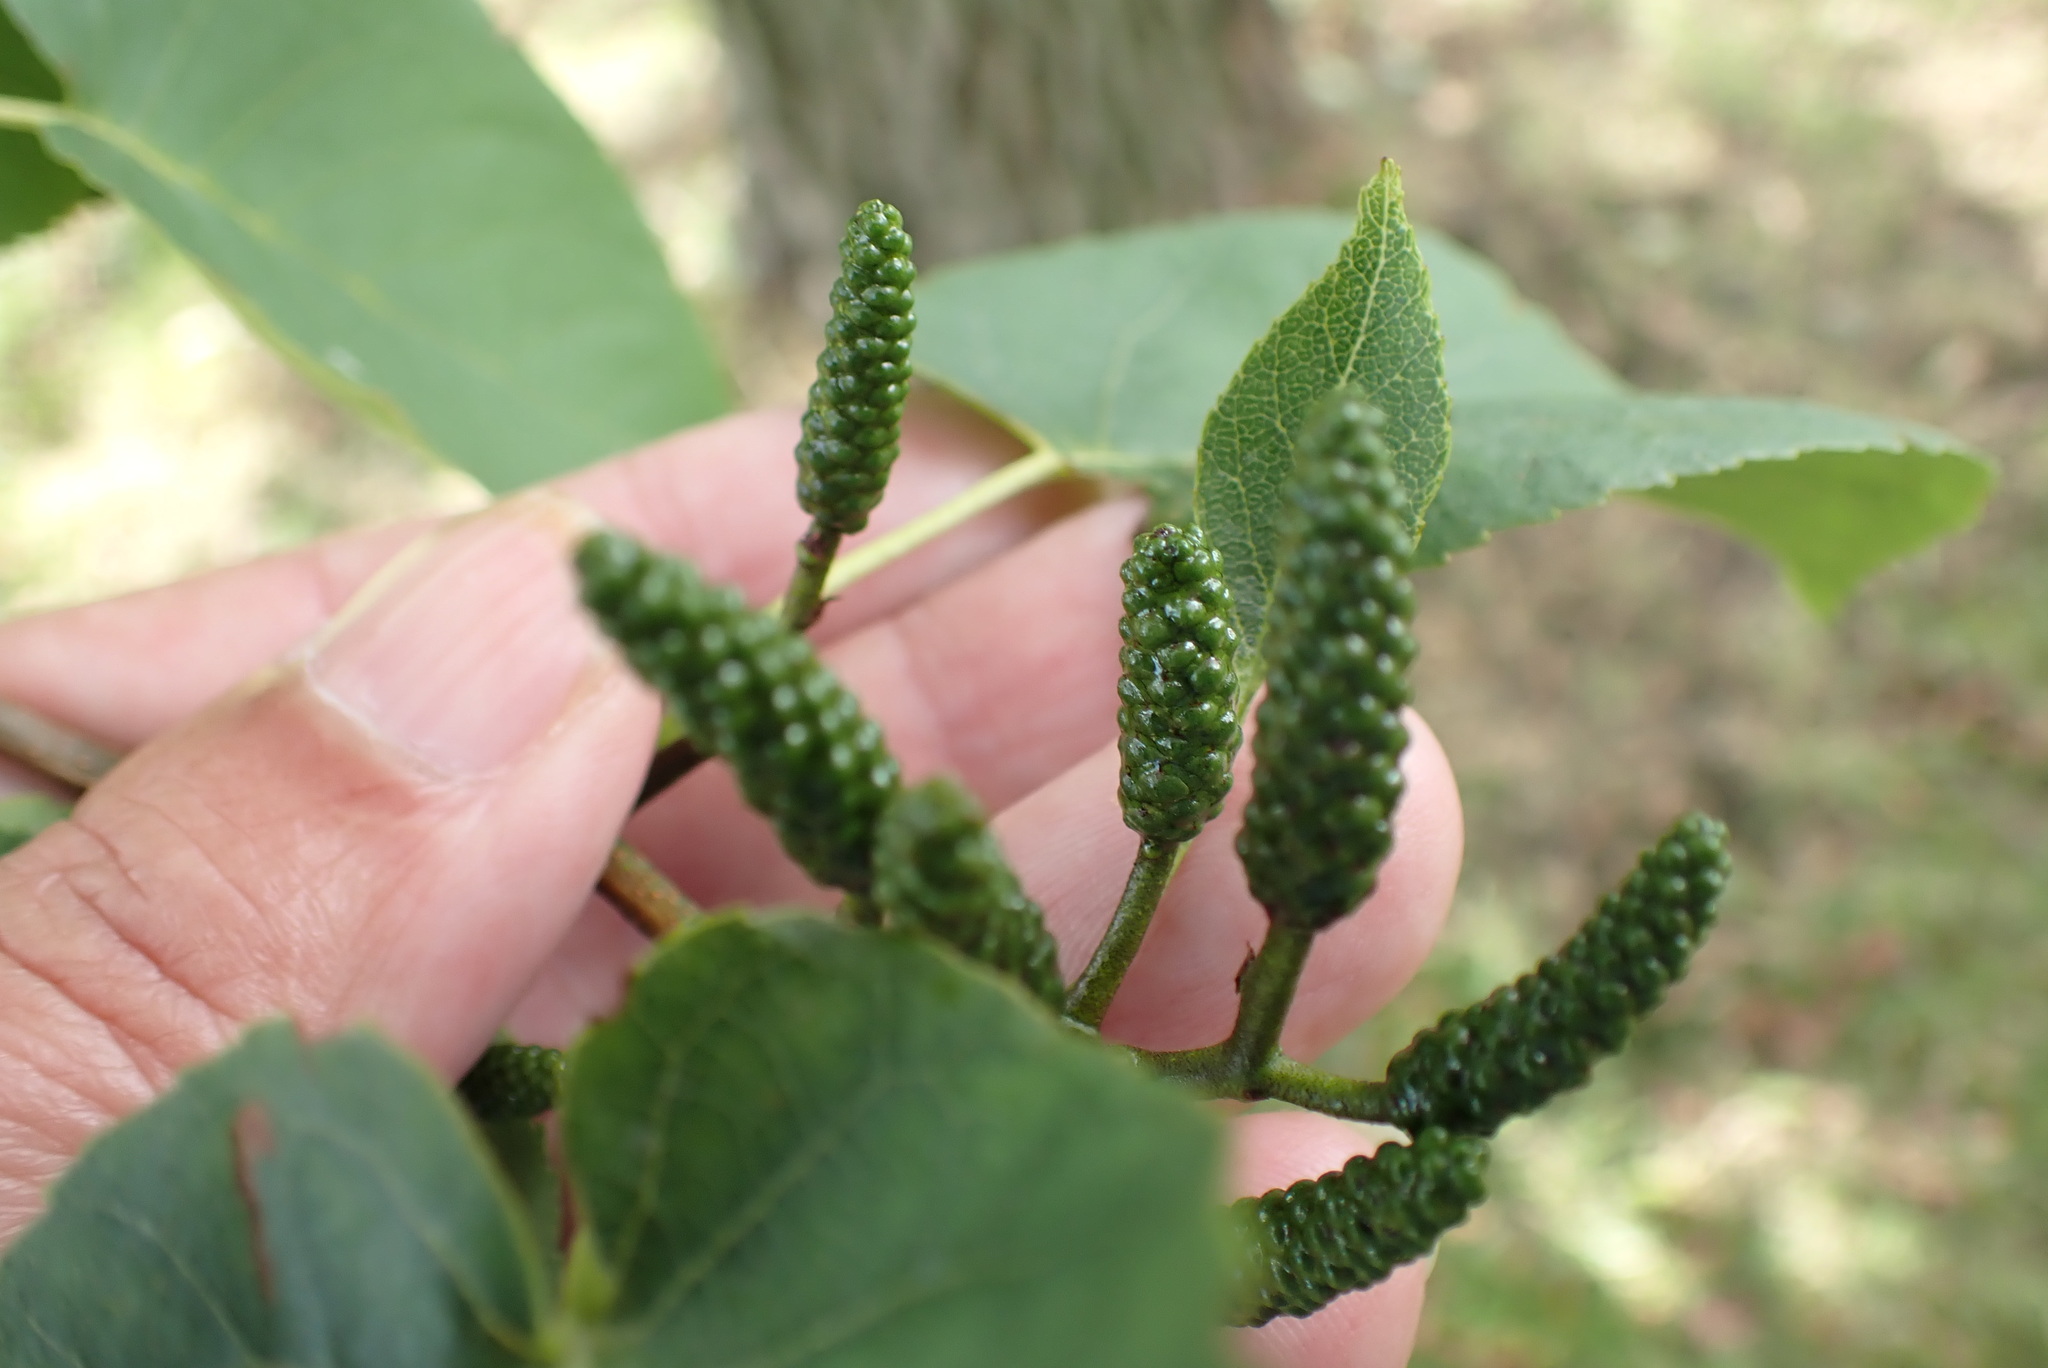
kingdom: Plantae
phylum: Tracheophyta
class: Magnoliopsida
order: Fagales
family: Betulaceae
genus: Alnus
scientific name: Alnus cordata
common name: Italian alder
